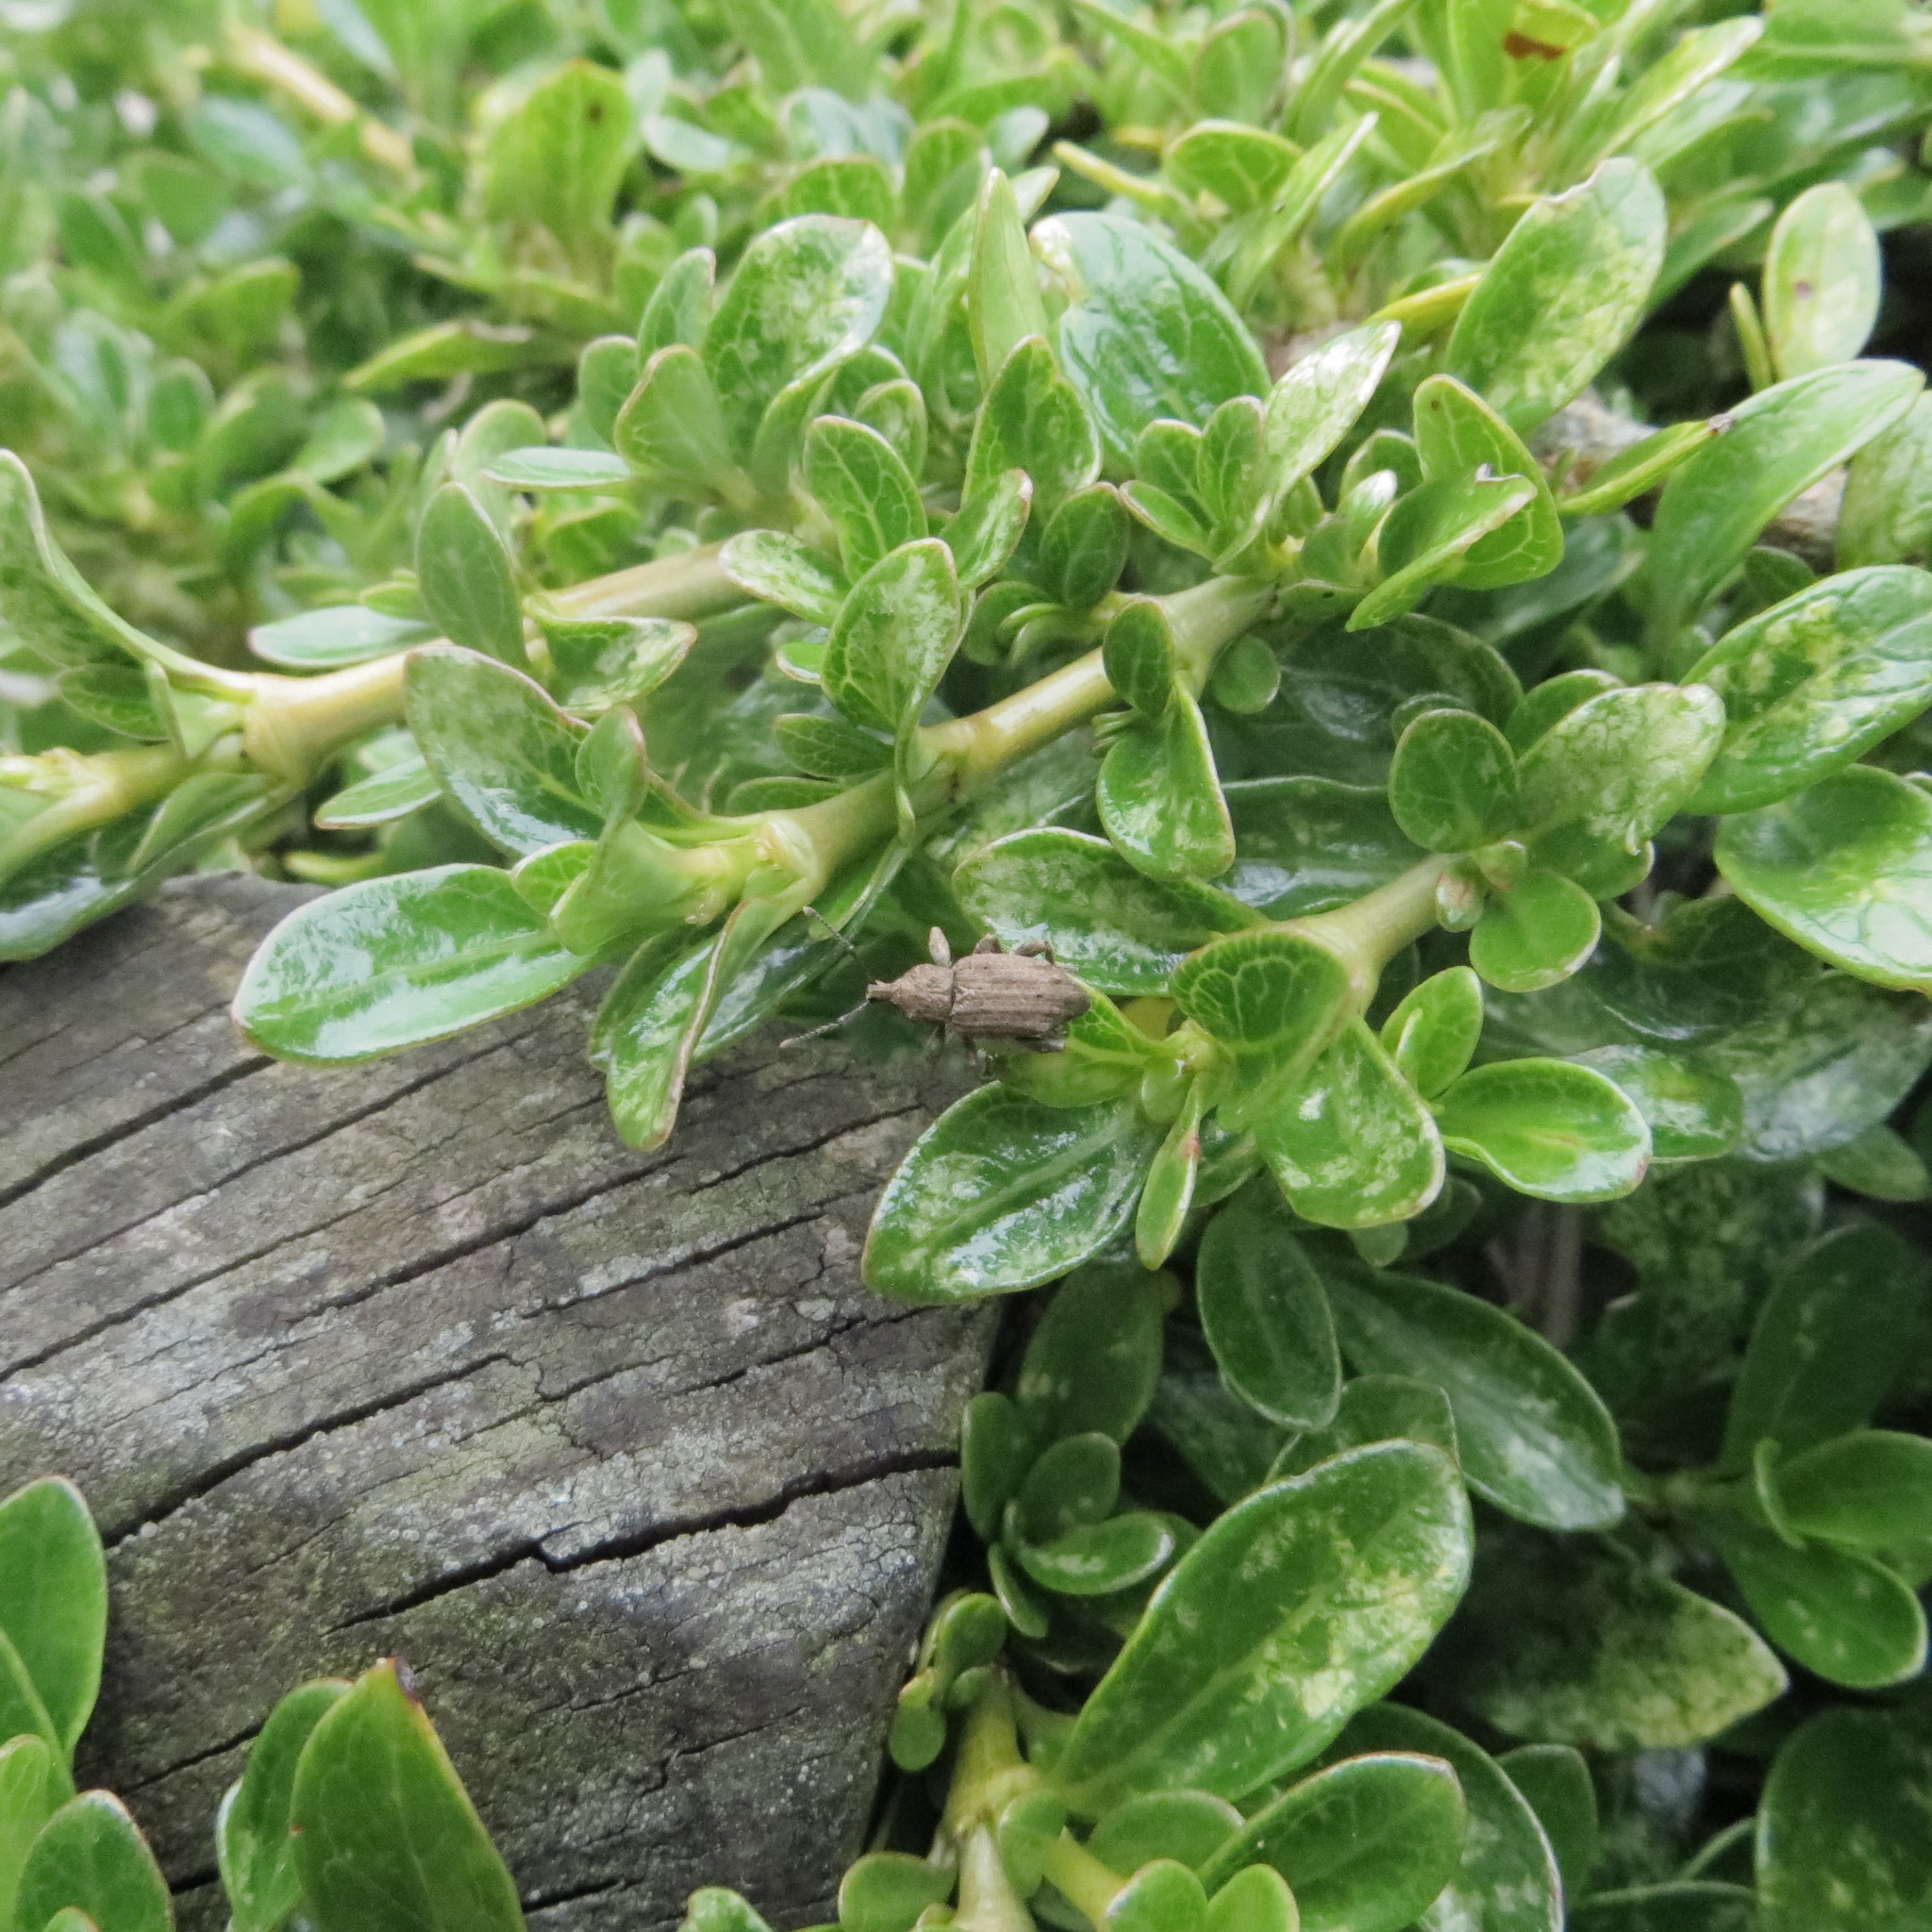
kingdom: Animalia
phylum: Arthropoda
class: Insecta
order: Coleoptera
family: Curculionidae
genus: Chalepistes
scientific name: Chalepistes rubidus
